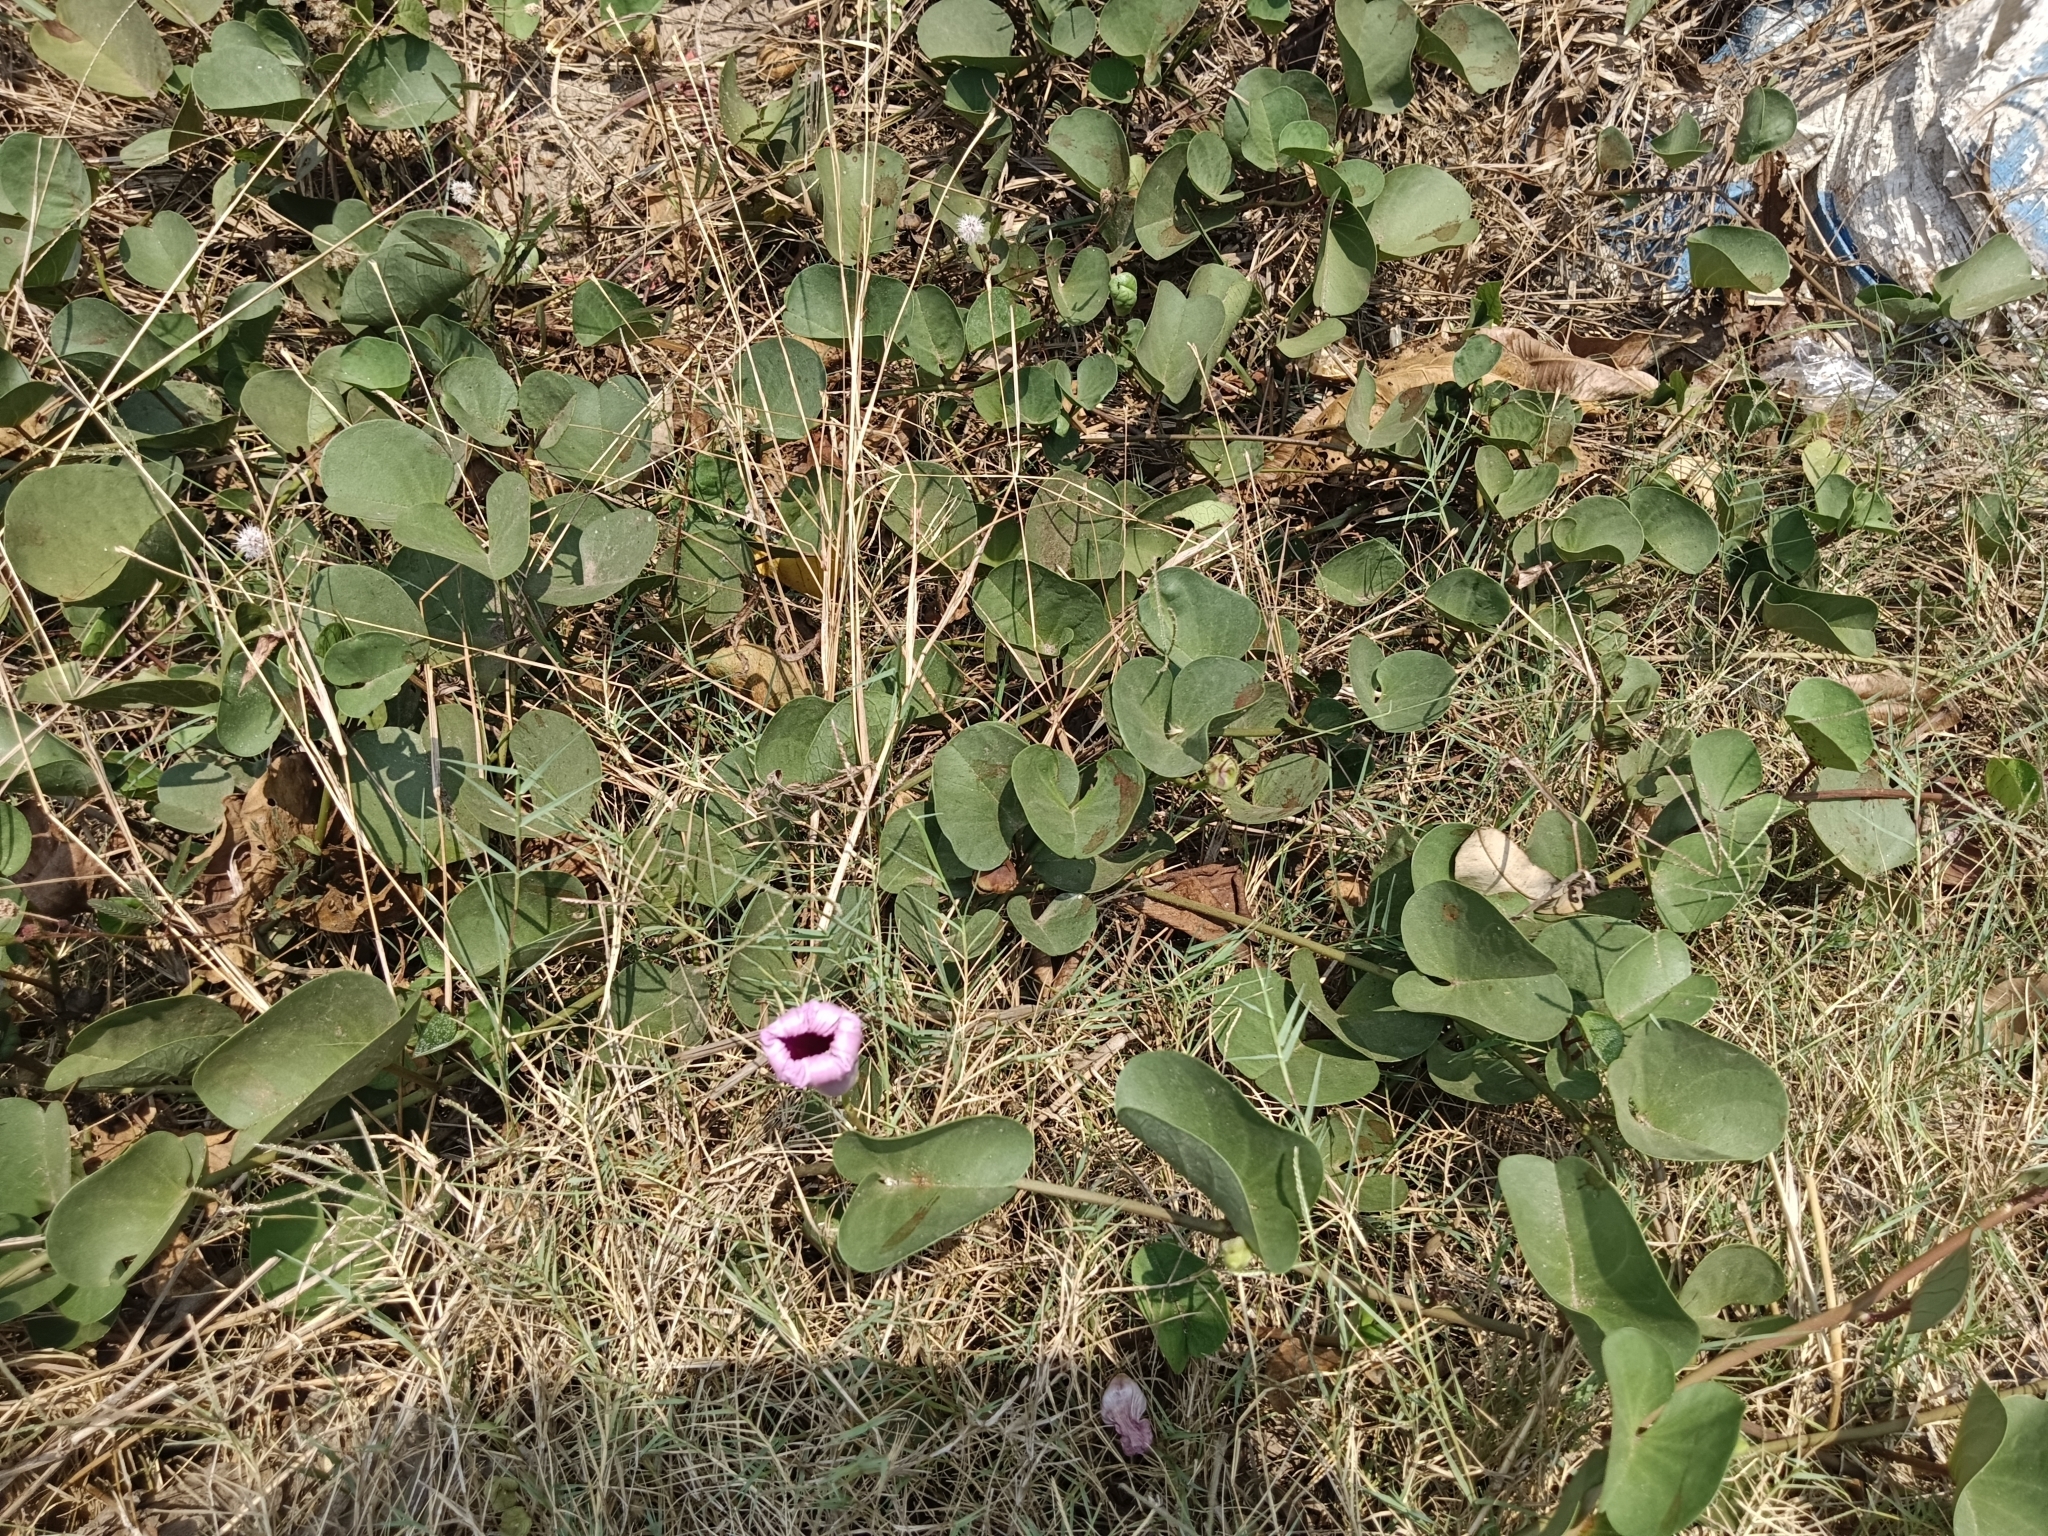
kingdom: Plantae
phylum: Tracheophyta
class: Magnoliopsida
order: Solanales
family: Convolvulaceae
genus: Ipomoea
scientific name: Ipomoea pes-caprae
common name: Beach morning glory
